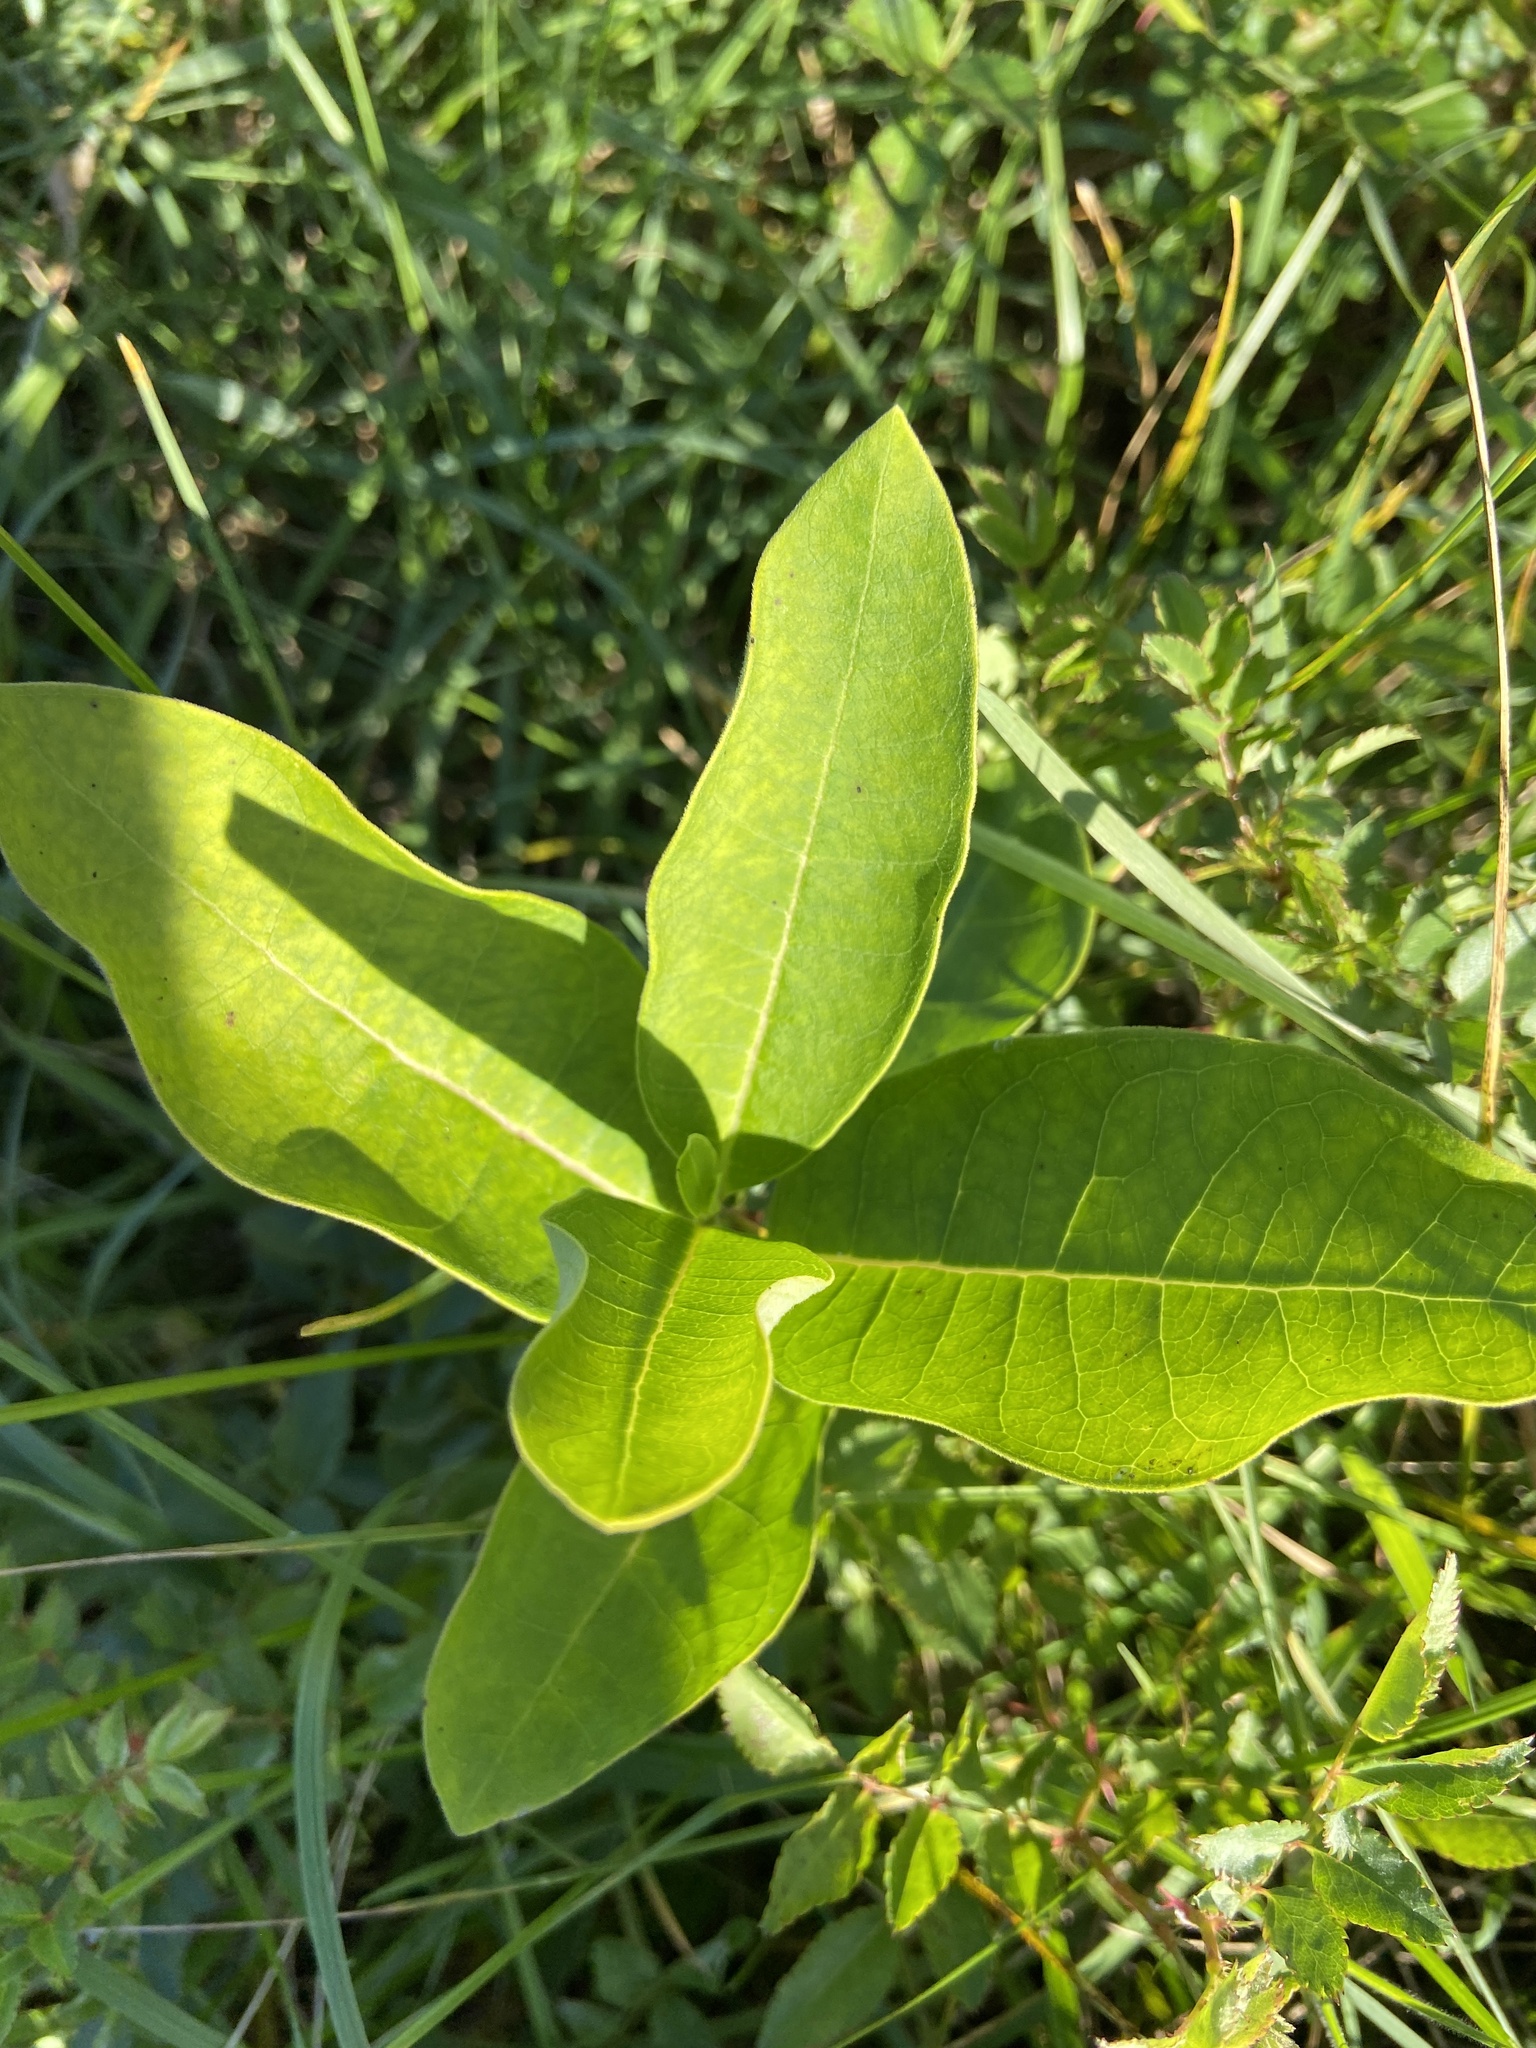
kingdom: Plantae
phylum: Tracheophyta
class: Magnoliopsida
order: Gentianales
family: Apocynaceae
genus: Asclepias
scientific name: Asclepias syriaca
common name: Common milkweed
